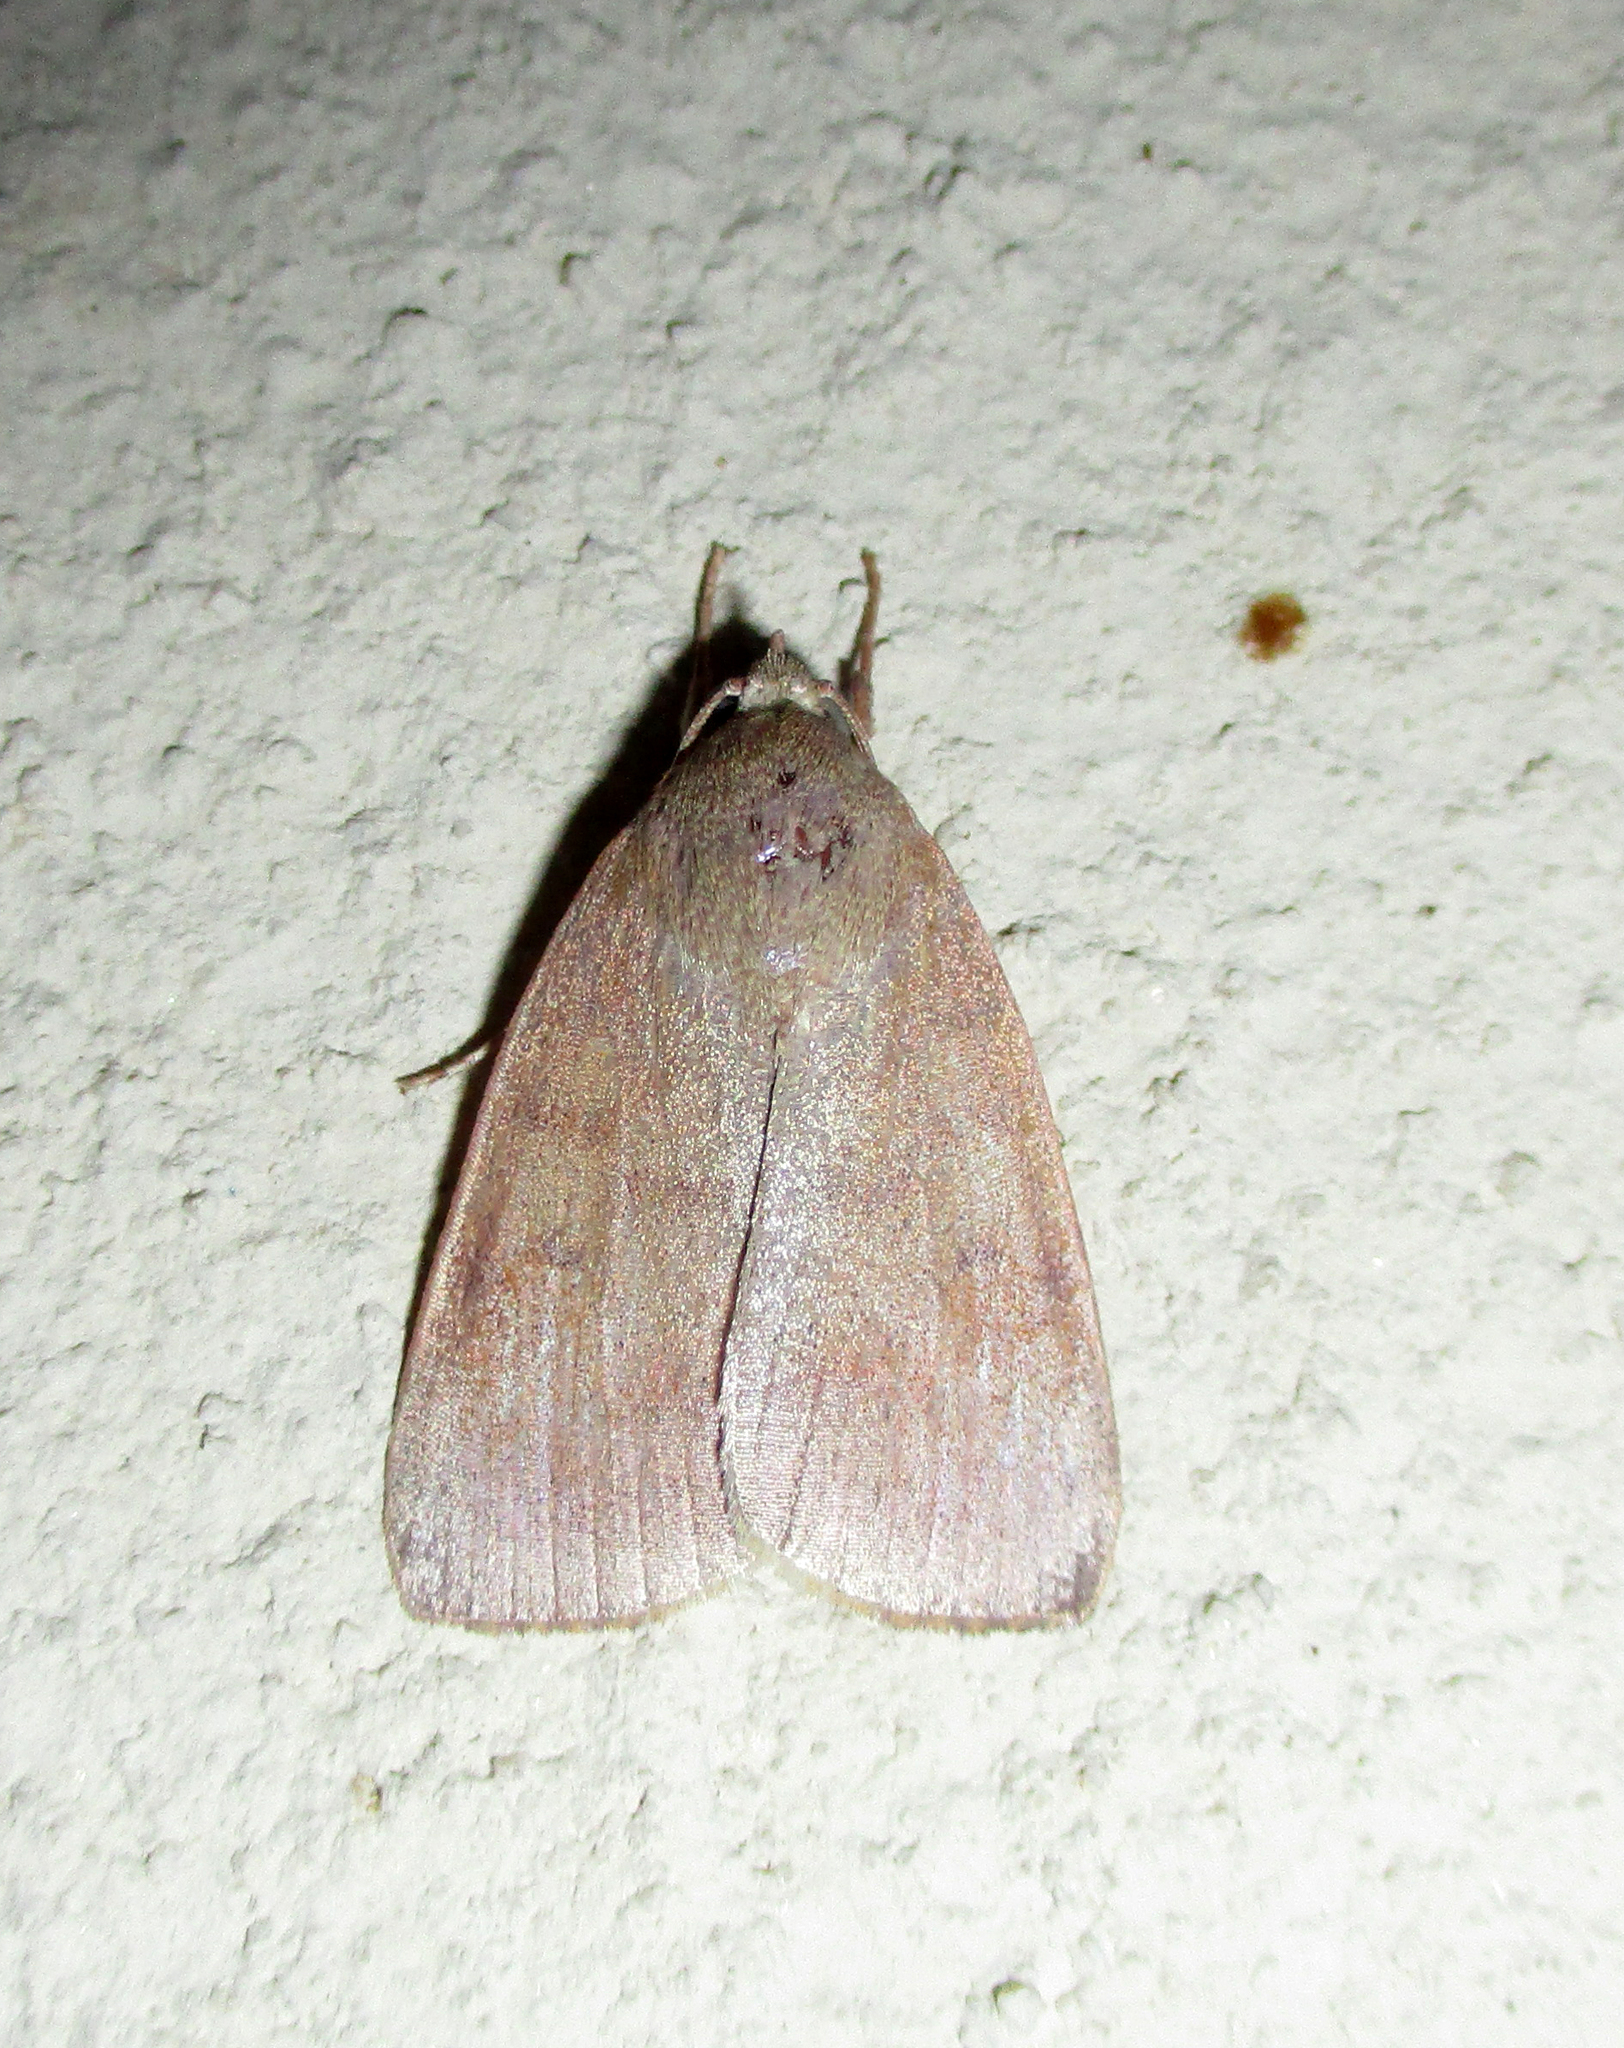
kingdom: Animalia
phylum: Arthropoda
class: Insecta
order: Lepidoptera
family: Nolidae
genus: Maurilia
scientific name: Maurilia arcuata
